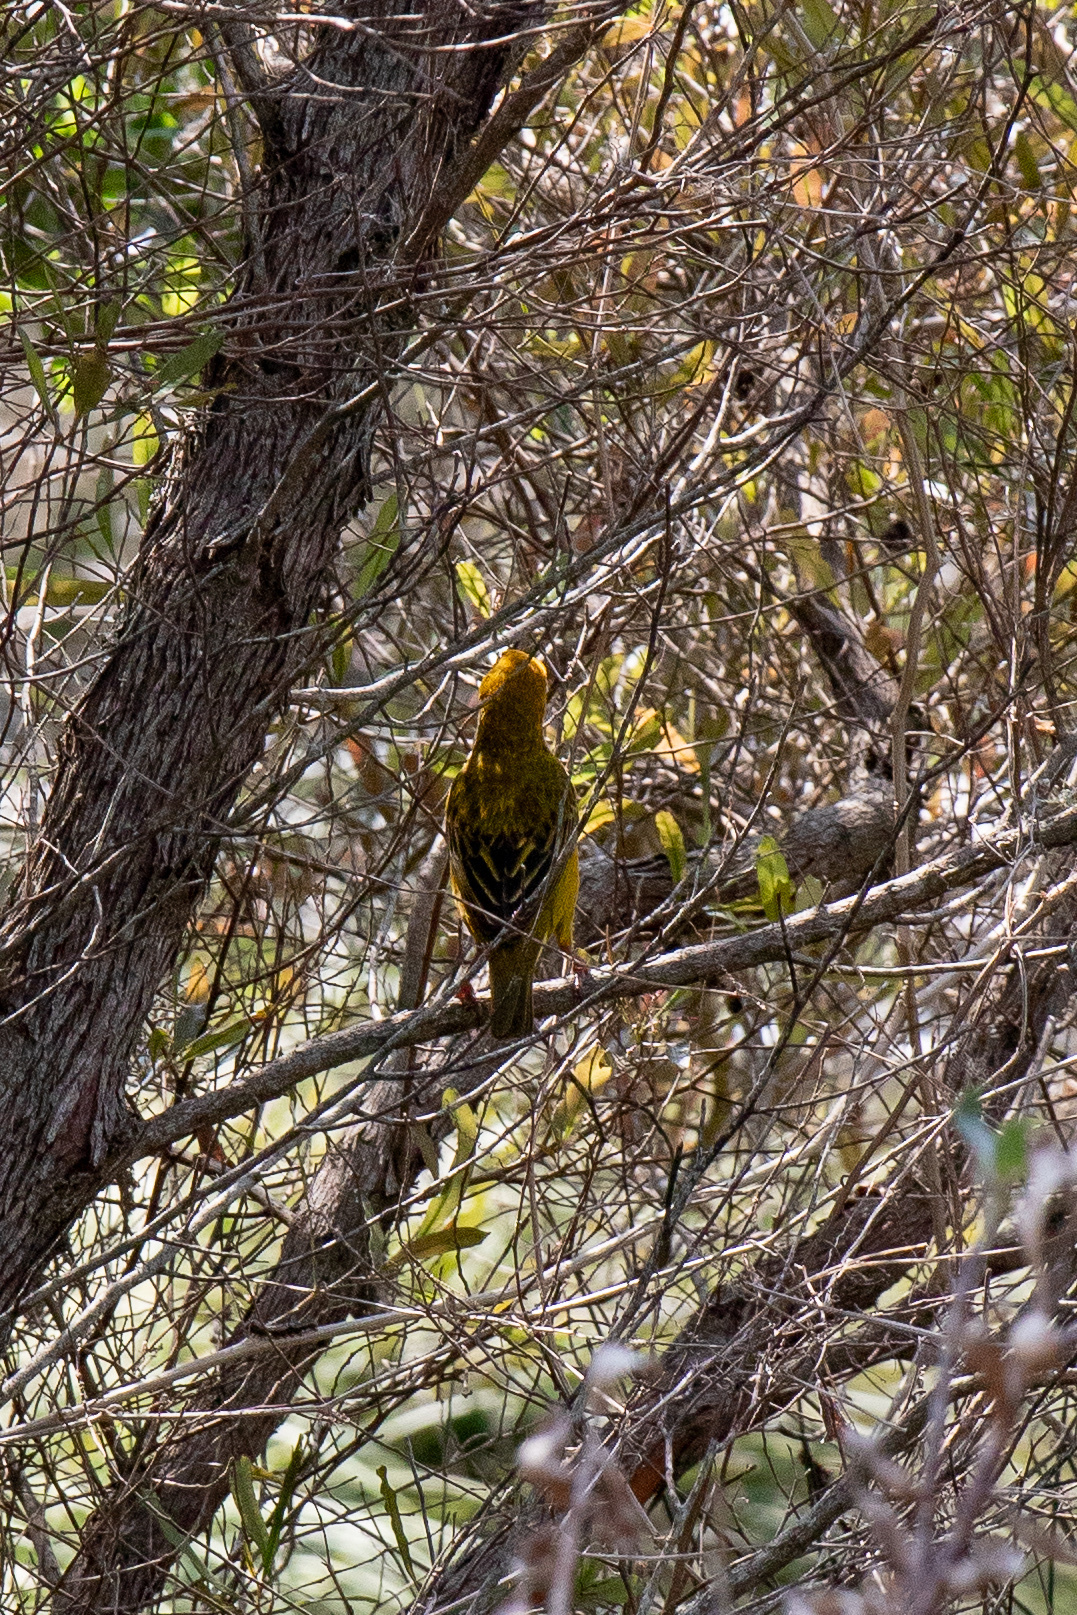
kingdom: Animalia
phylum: Chordata
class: Aves
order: Passeriformes
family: Ploceidae
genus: Ploceus
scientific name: Ploceus capensis
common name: Cape weaver
